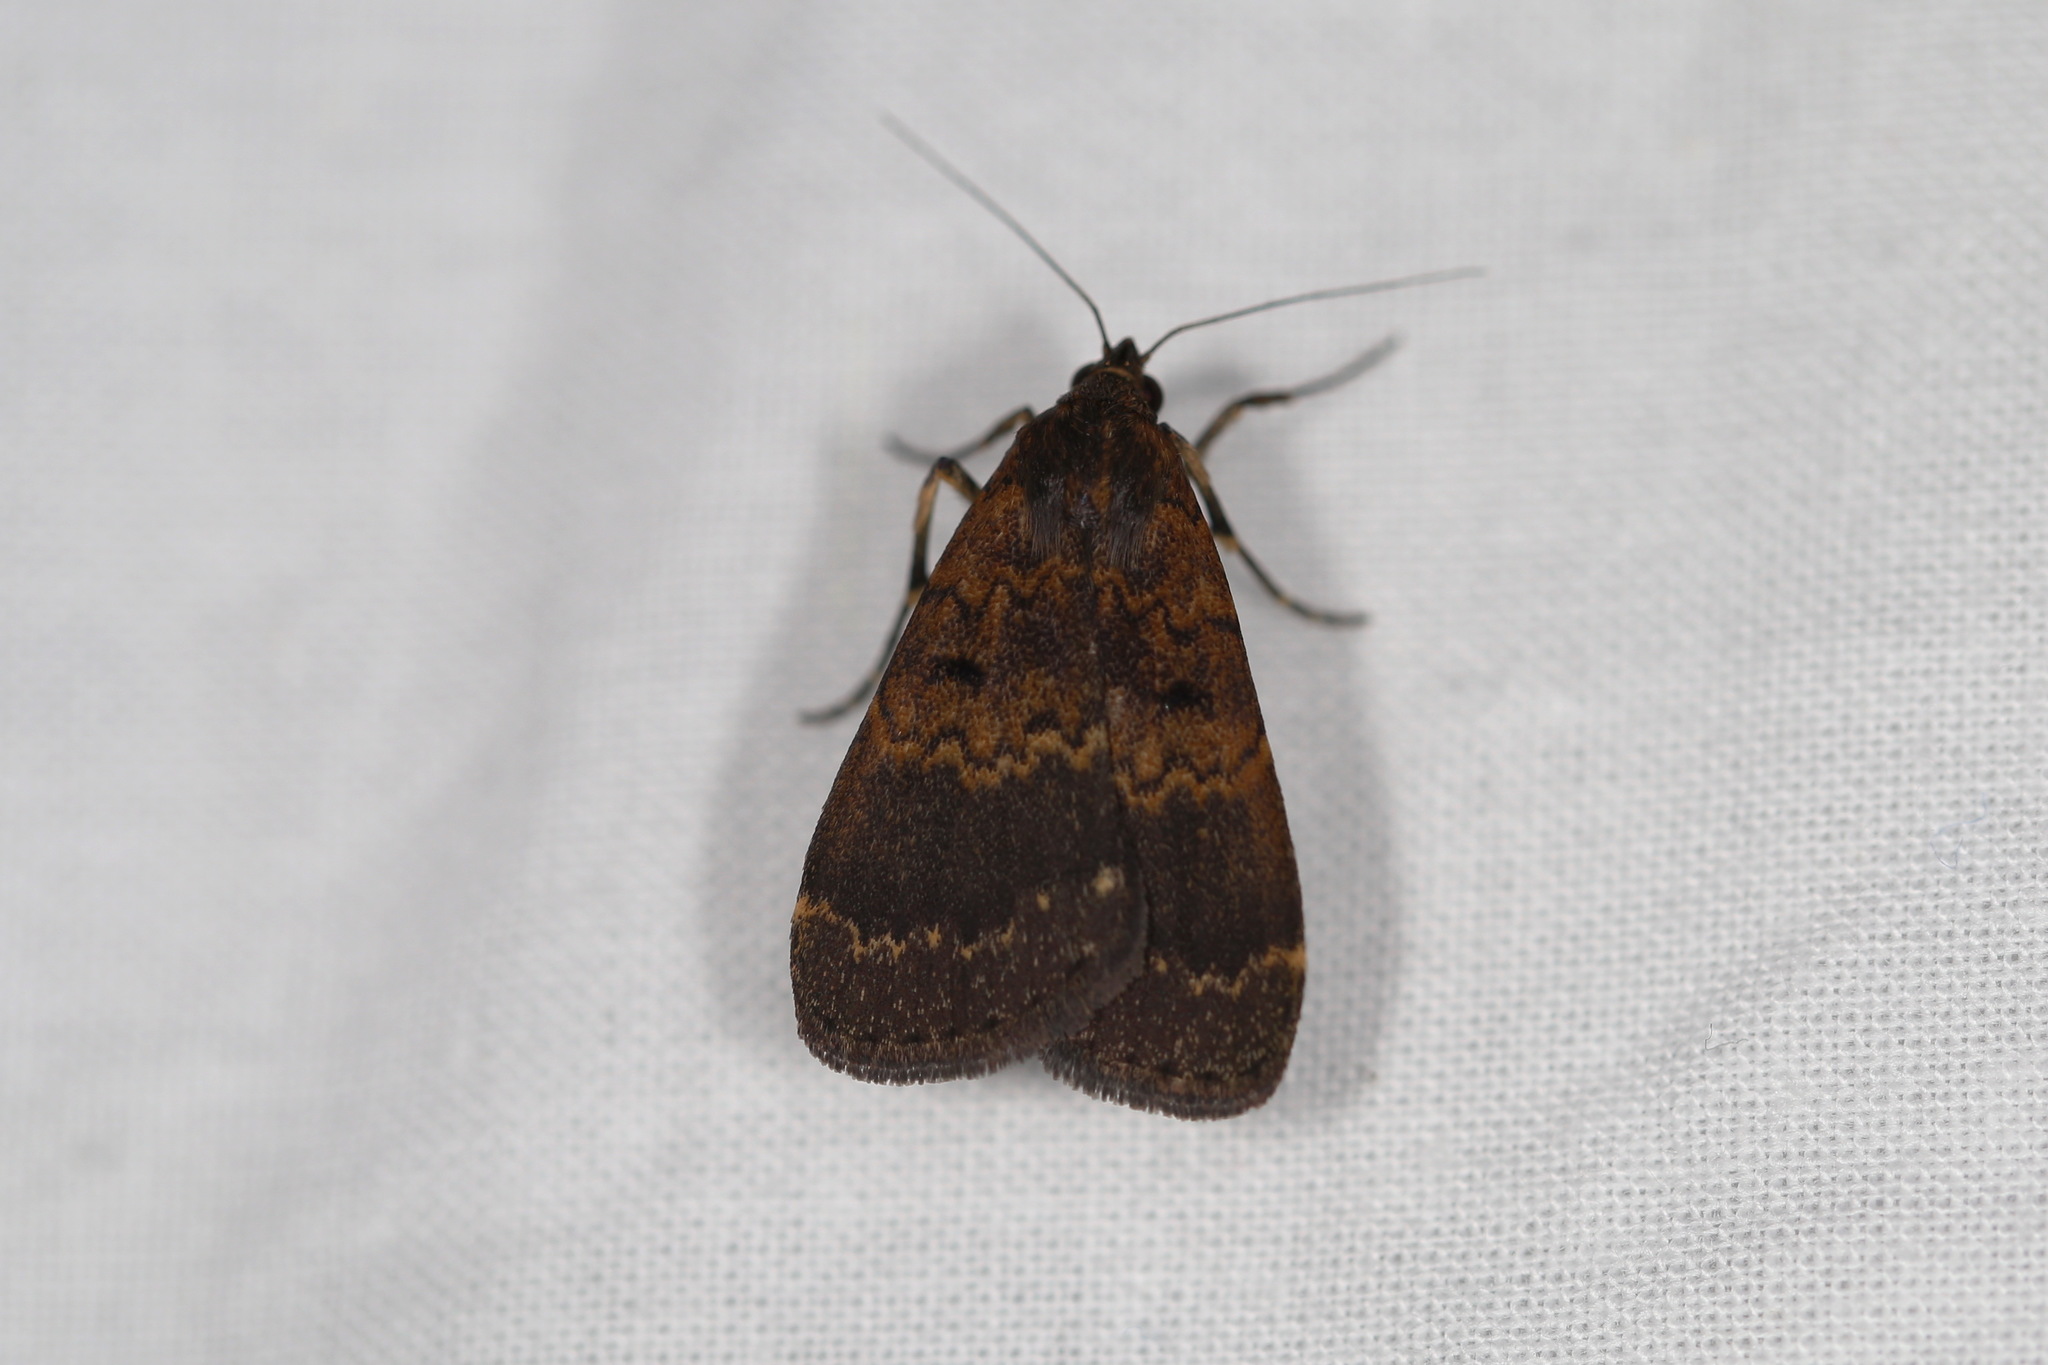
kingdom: Animalia
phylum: Arthropoda
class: Insecta
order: Lepidoptera
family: Erebidae
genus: Hydrillodes
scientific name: Hydrillodes funestalis
